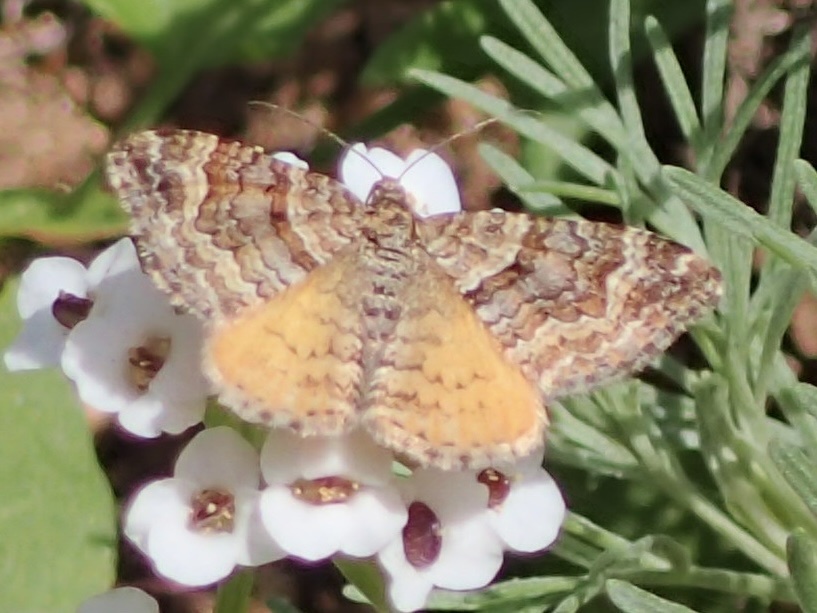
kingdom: Animalia
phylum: Arthropoda
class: Insecta
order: Lepidoptera
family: Geometridae
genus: Epirrhoe
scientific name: Epirrhoe plebeculata
